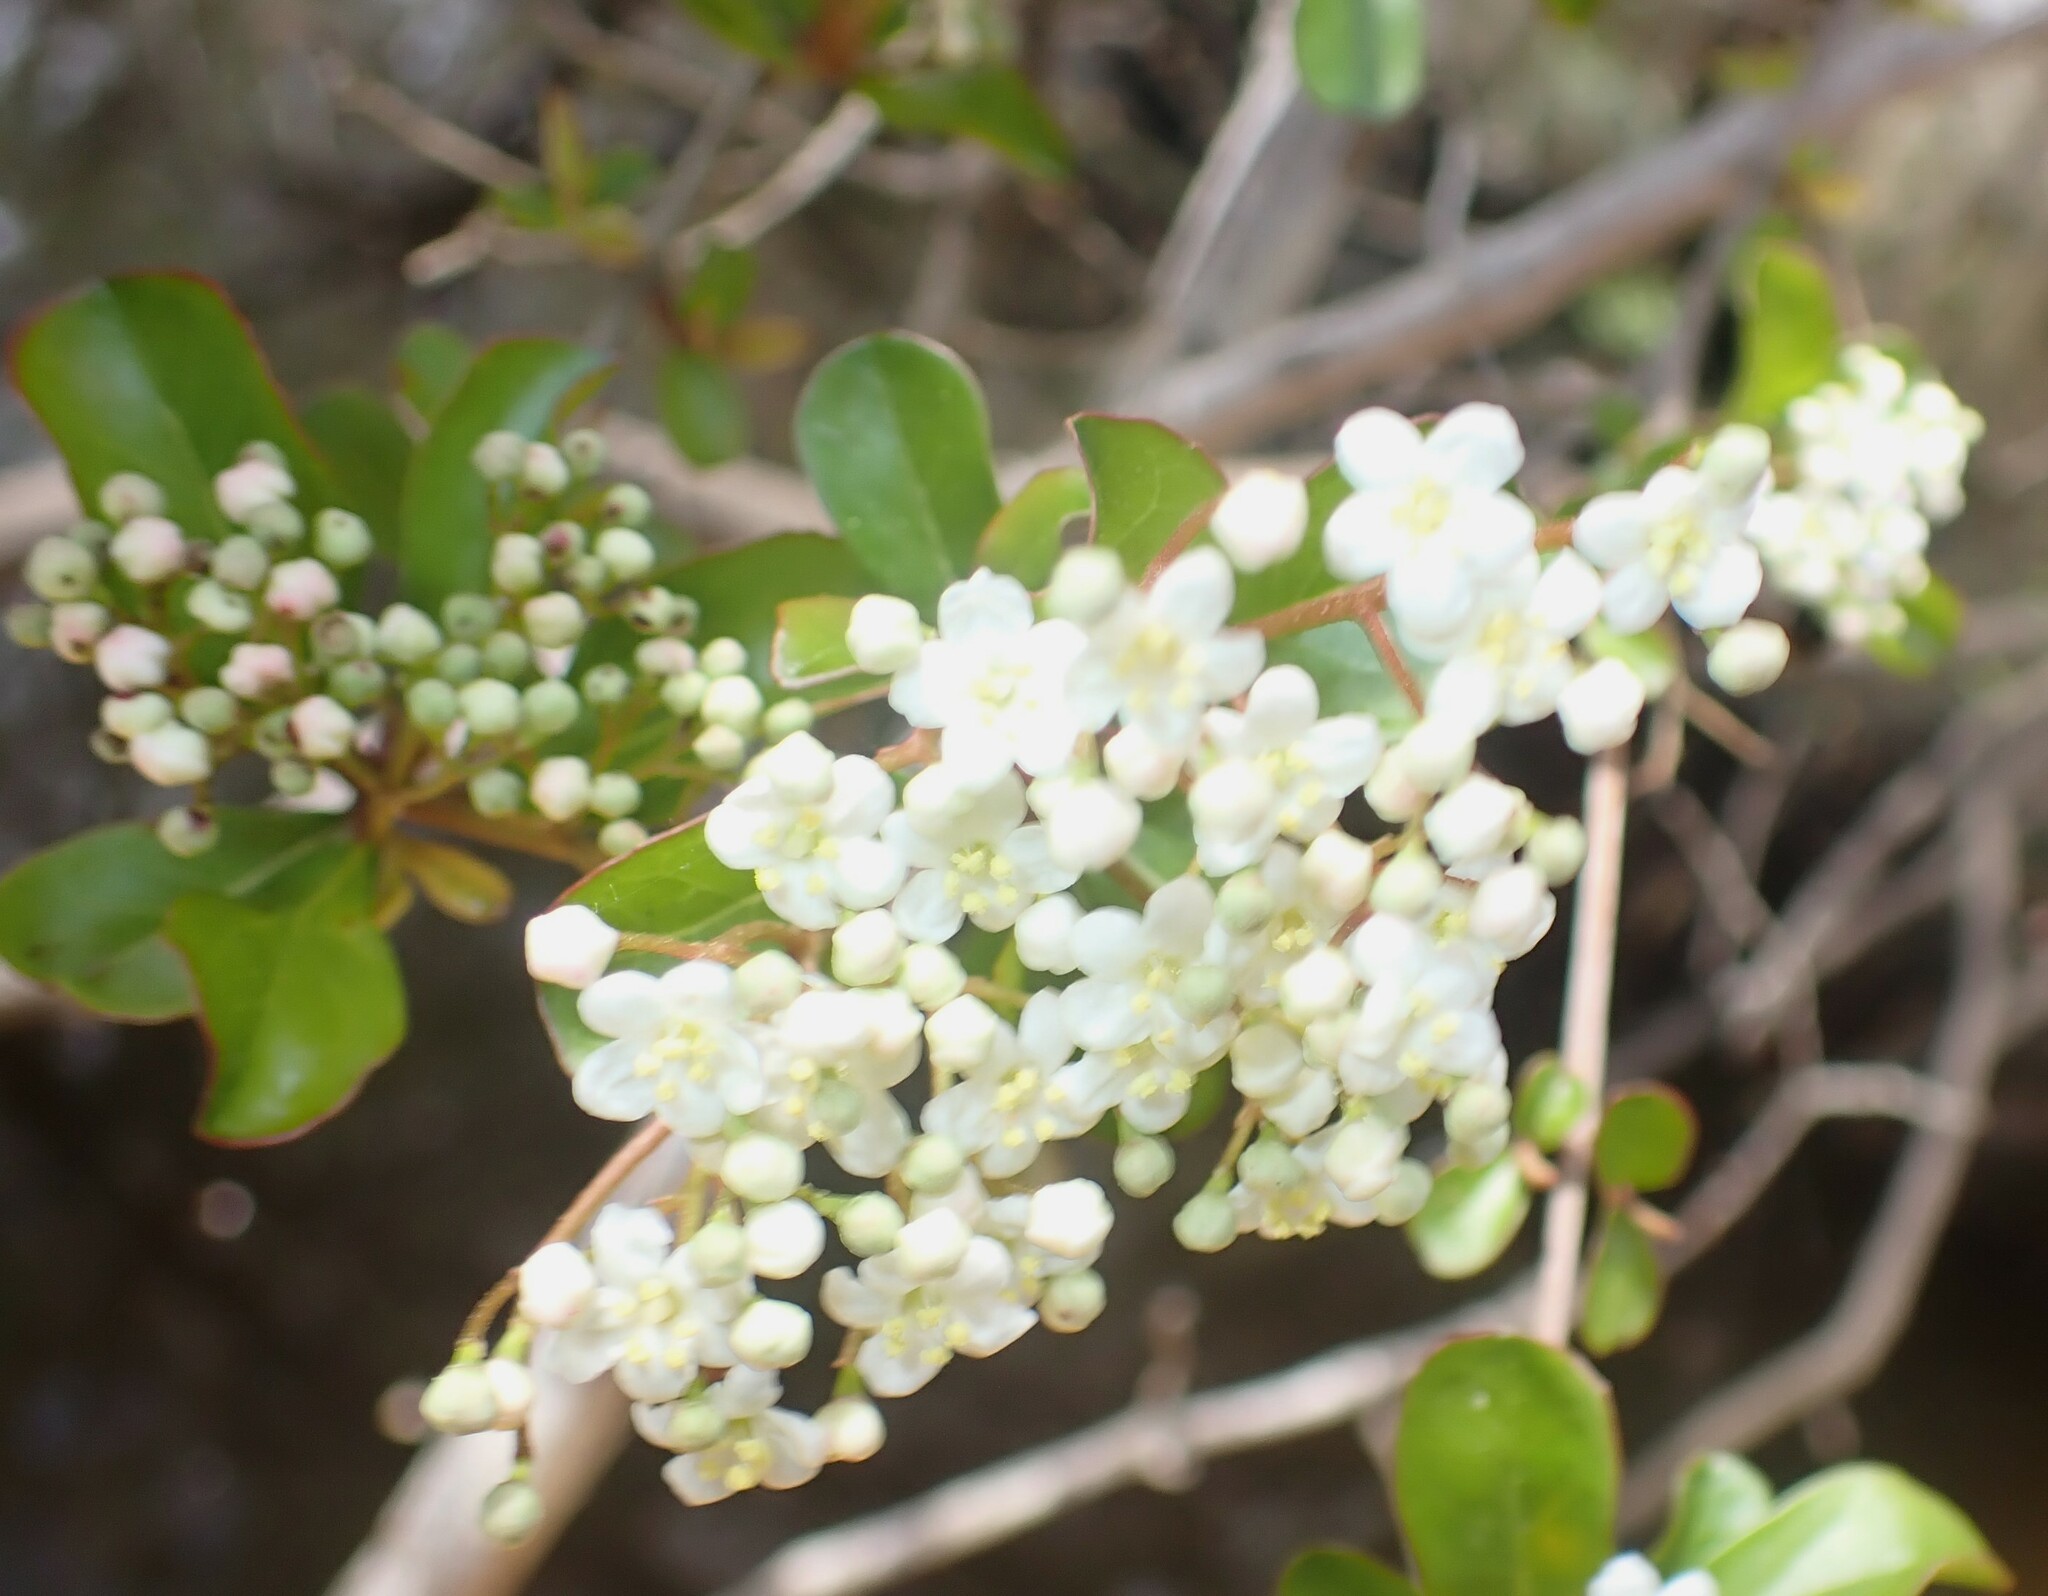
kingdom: Plantae
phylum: Tracheophyta
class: Magnoliopsida
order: Dipsacales
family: Viburnaceae
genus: Viburnum
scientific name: Viburnum obovatum
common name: Walter's viburnum
